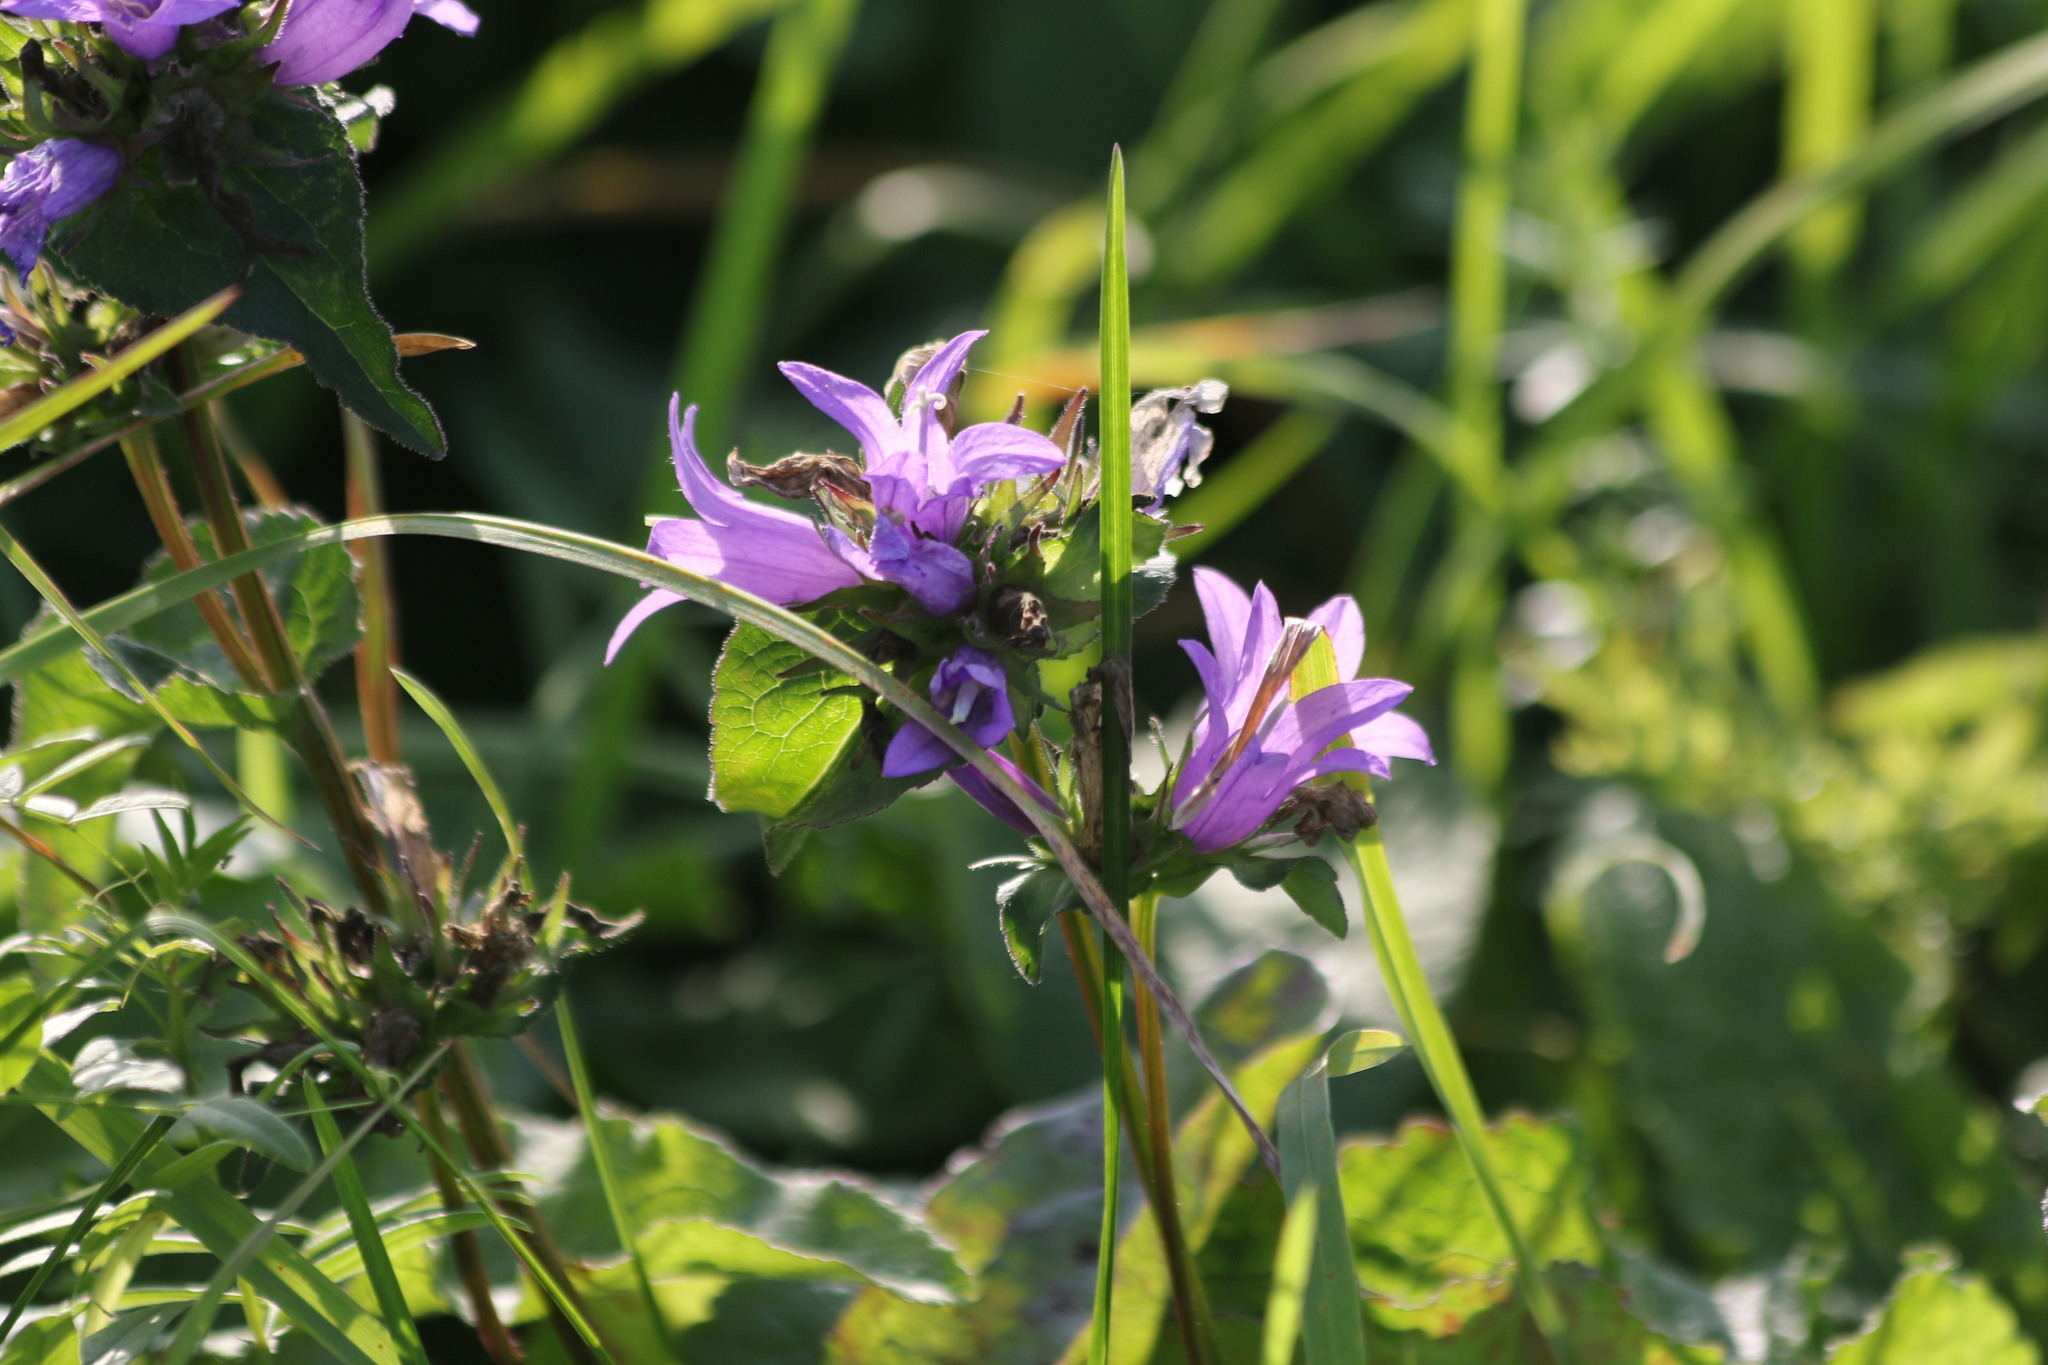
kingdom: Plantae
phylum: Tracheophyta
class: Magnoliopsida
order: Asterales
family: Campanulaceae
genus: Campanula
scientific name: Campanula glomerata
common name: Clustered bellflower
